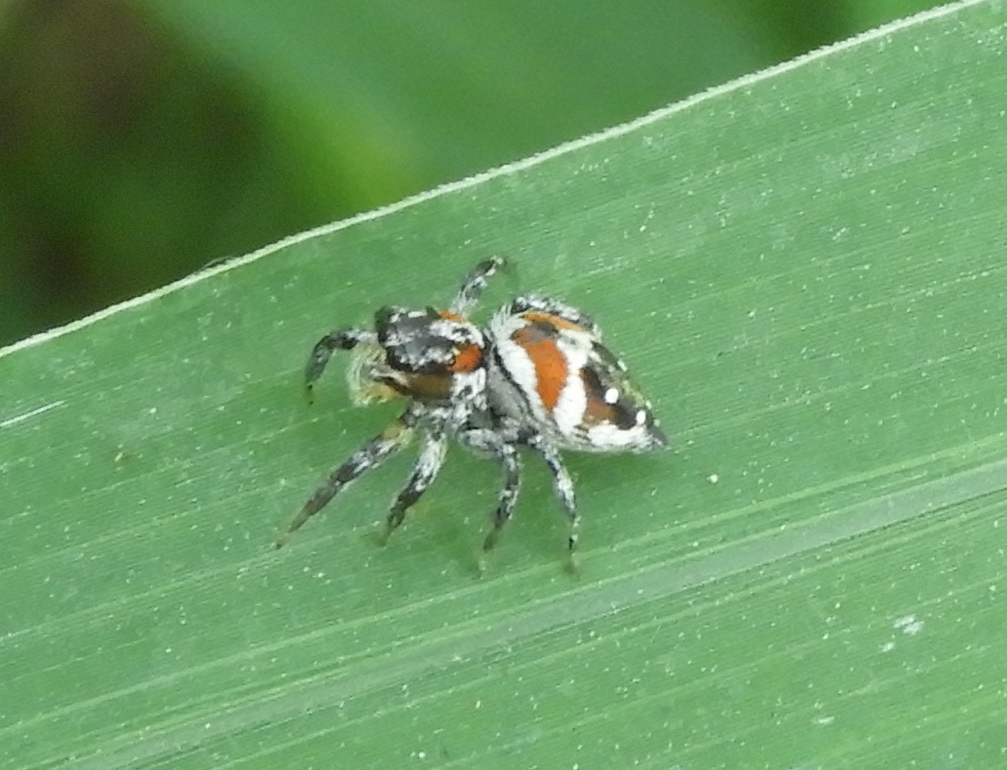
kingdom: Animalia
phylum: Arthropoda
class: Arachnida
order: Araneae
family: Salticidae
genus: Nycerella
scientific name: Nycerella delecta
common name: Jumping spiders
